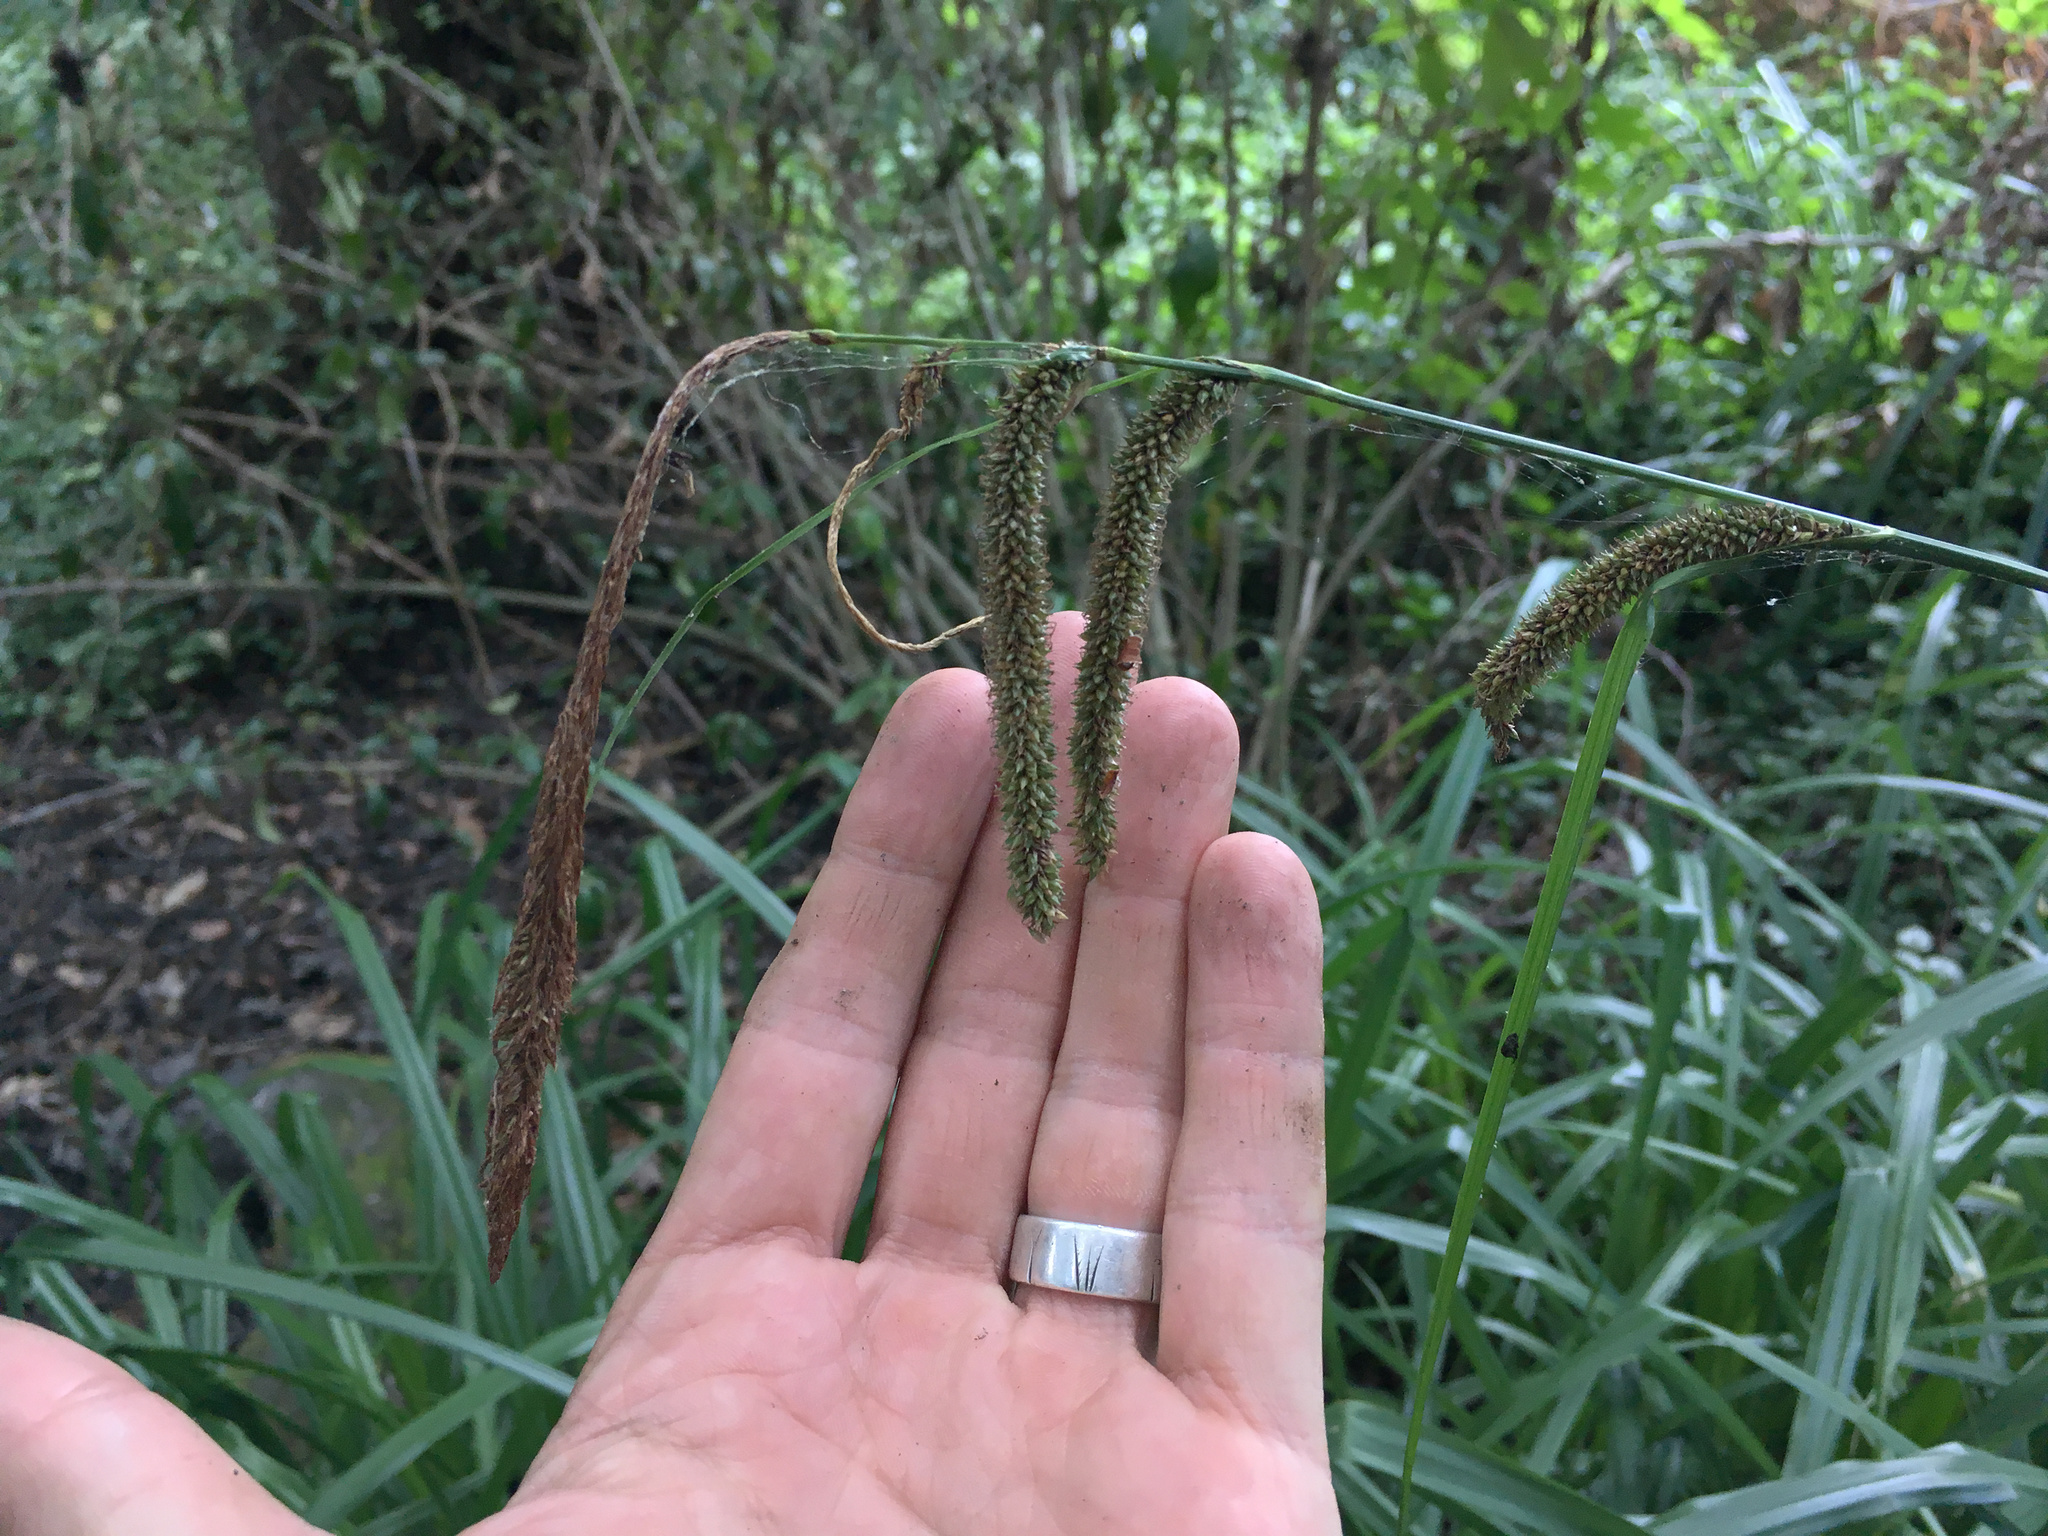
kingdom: Plantae
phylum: Tracheophyta
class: Liliopsida
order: Poales
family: Cyperaceae
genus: Carex
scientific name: Carex pendula
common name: Pendulous sedge
